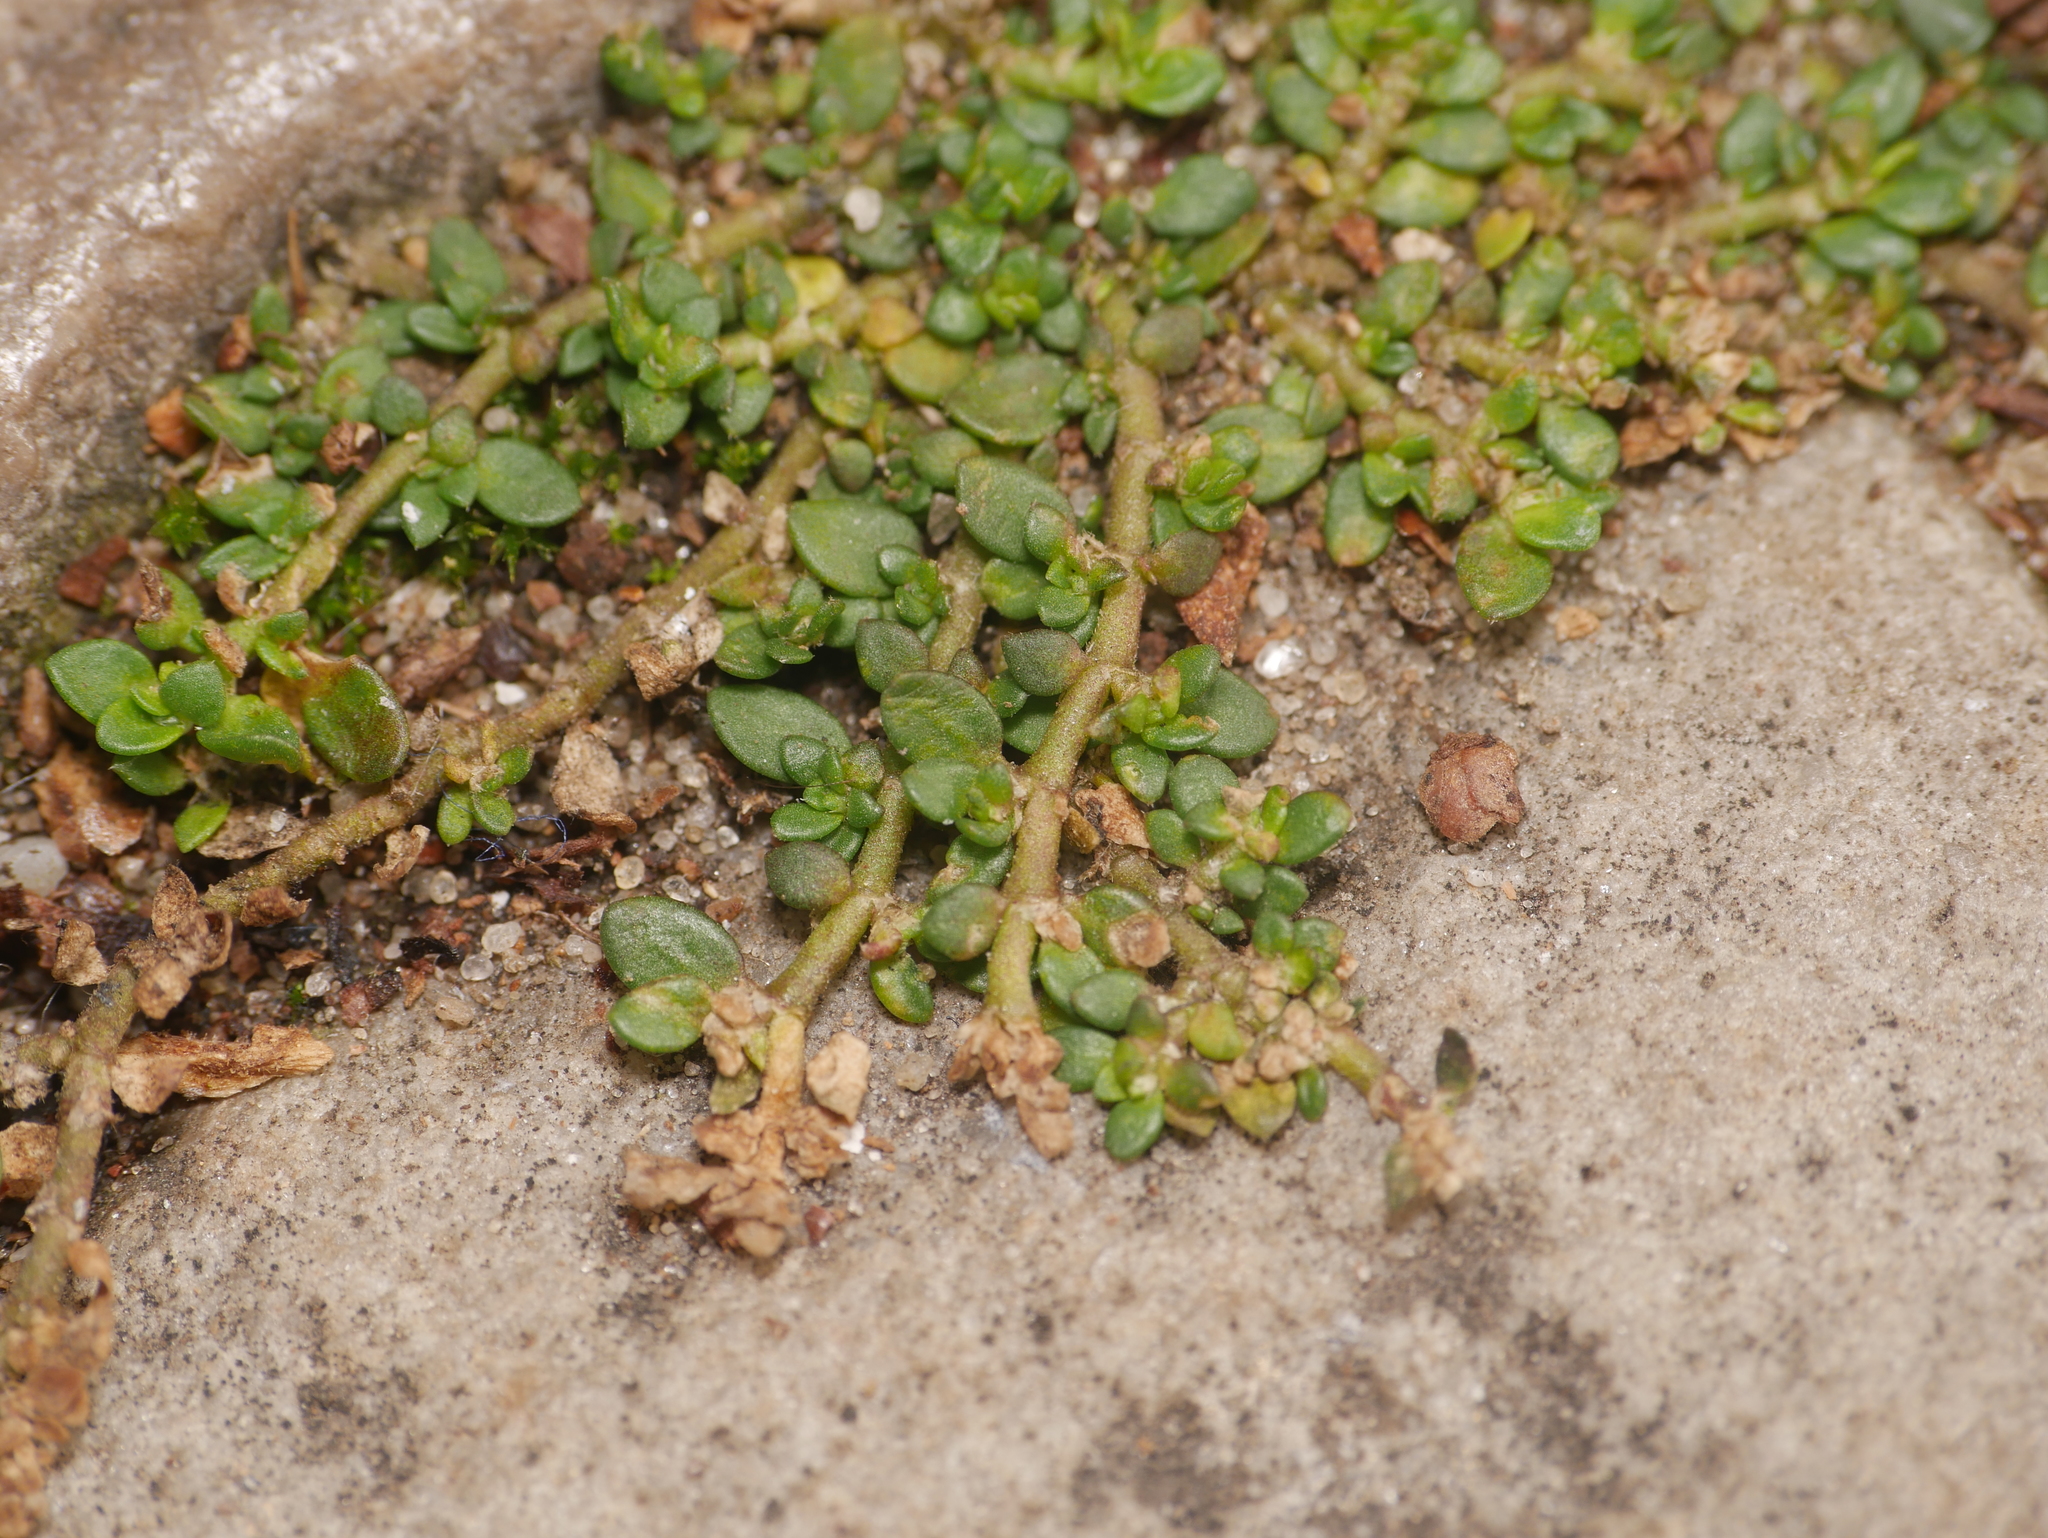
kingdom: Plantae
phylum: Tracheophyta
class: Magnoliopsida
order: Caryophyllales
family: Caryophyllaceae
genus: Herniaria
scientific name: Herniaria glabra
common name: Smooth rupturewort
